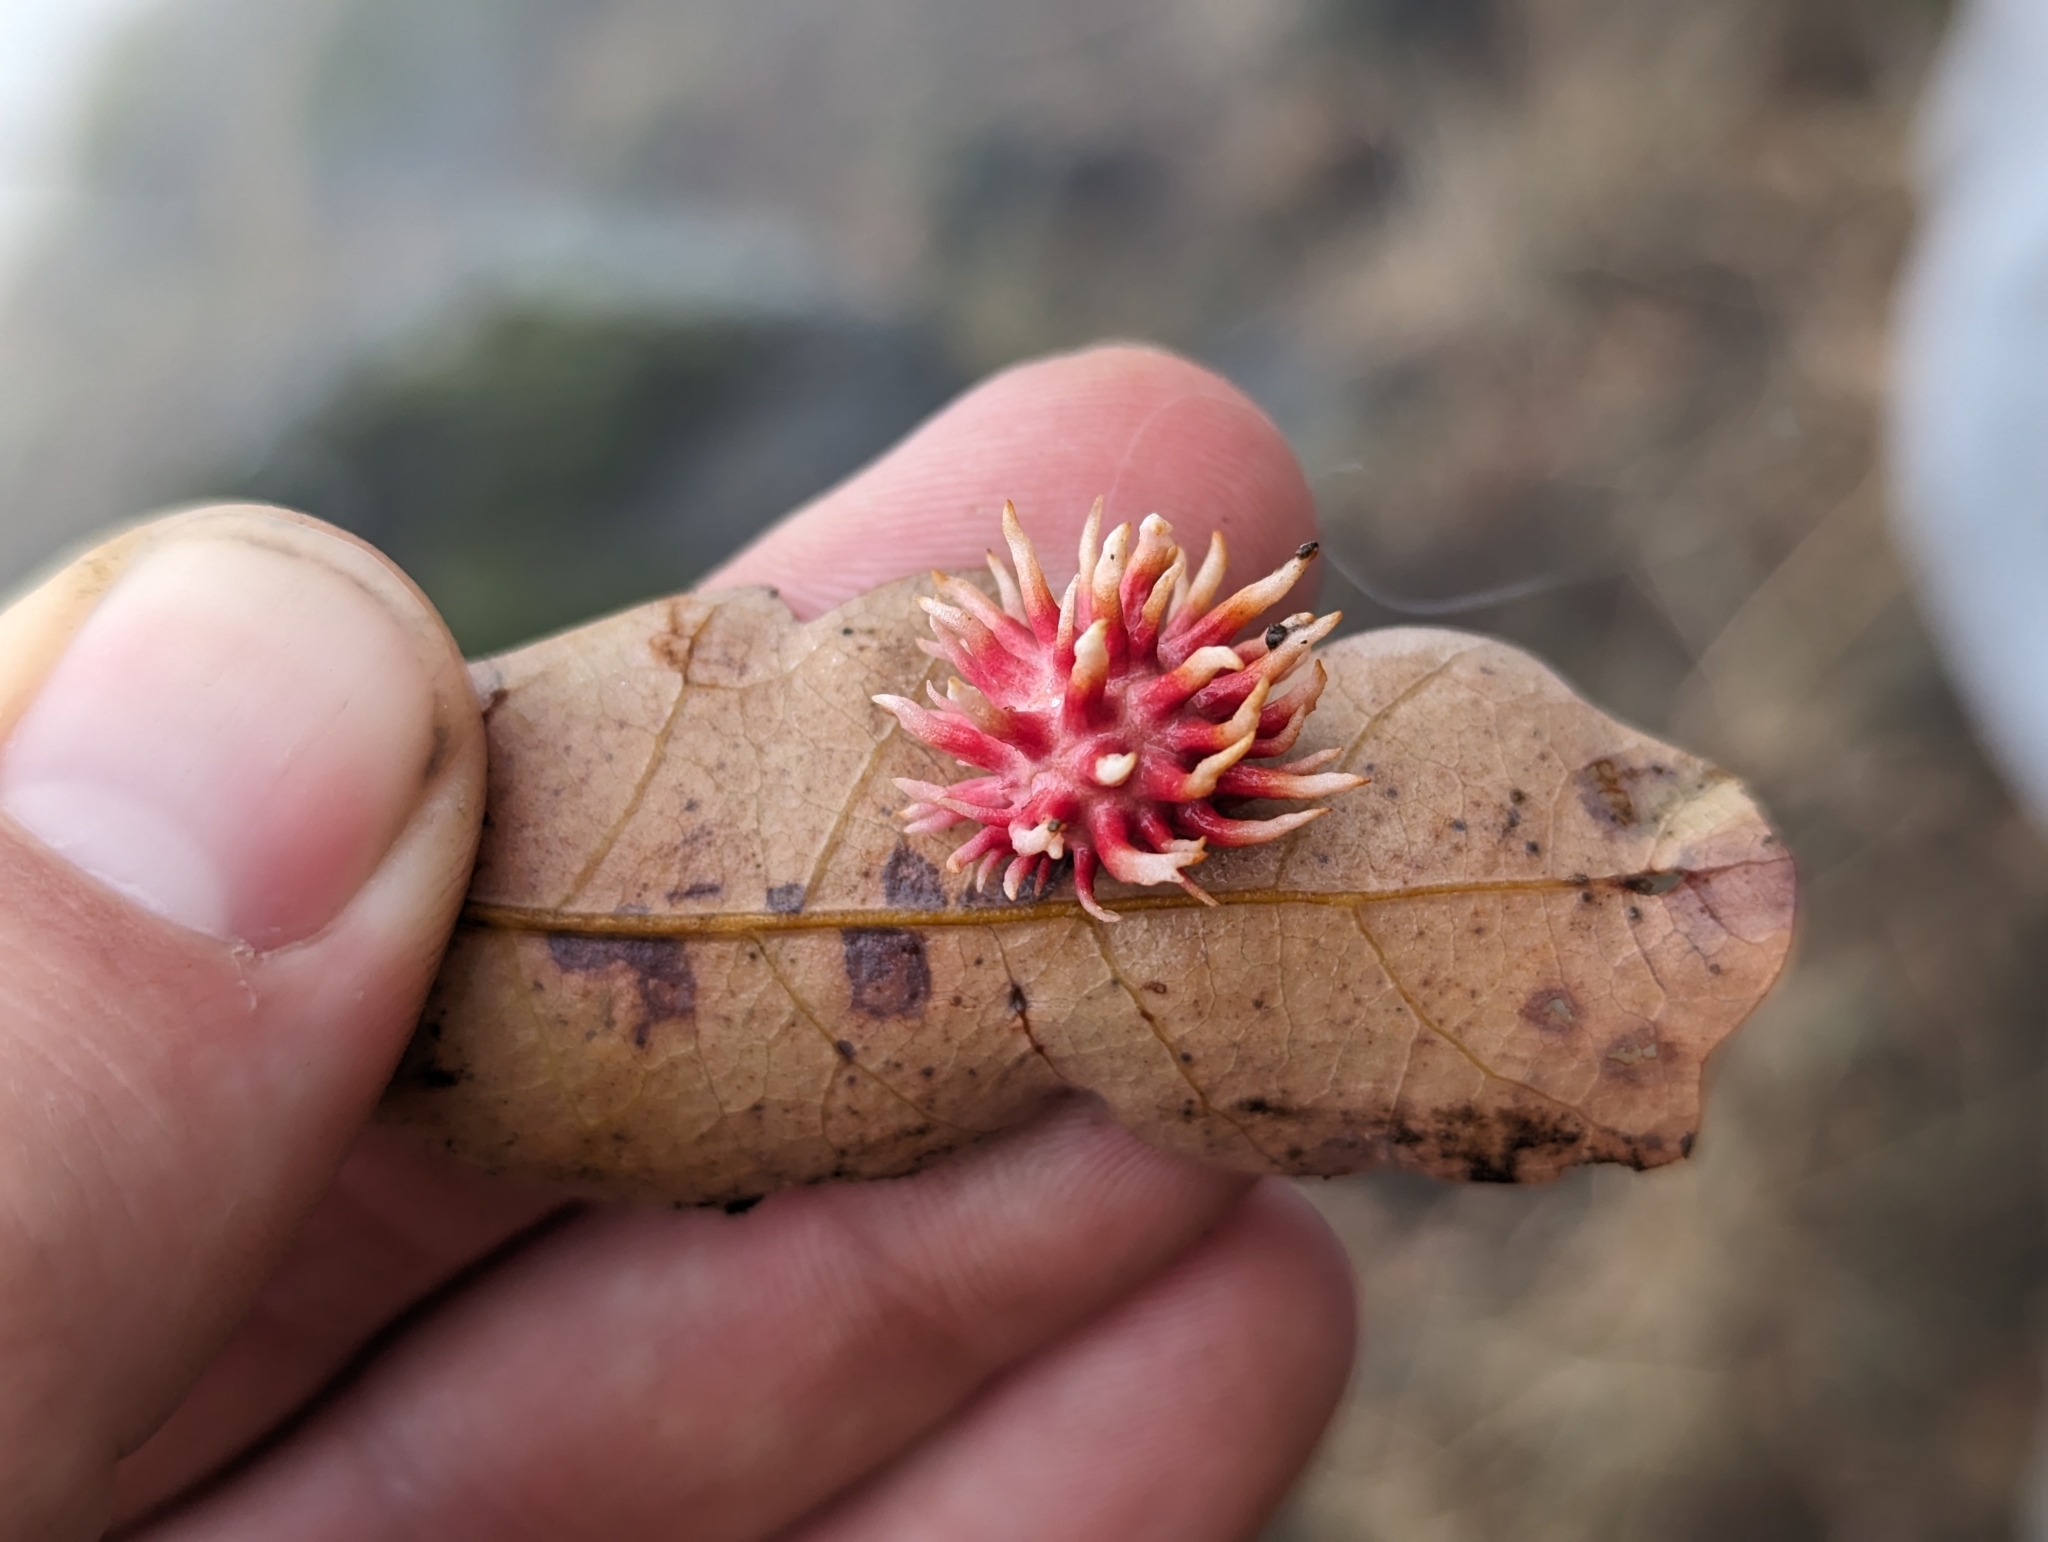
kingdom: Animalia
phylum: Arthropoda
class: Insecta
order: Hymenoptera
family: Cynipidae
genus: Cynips
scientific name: Cynips
